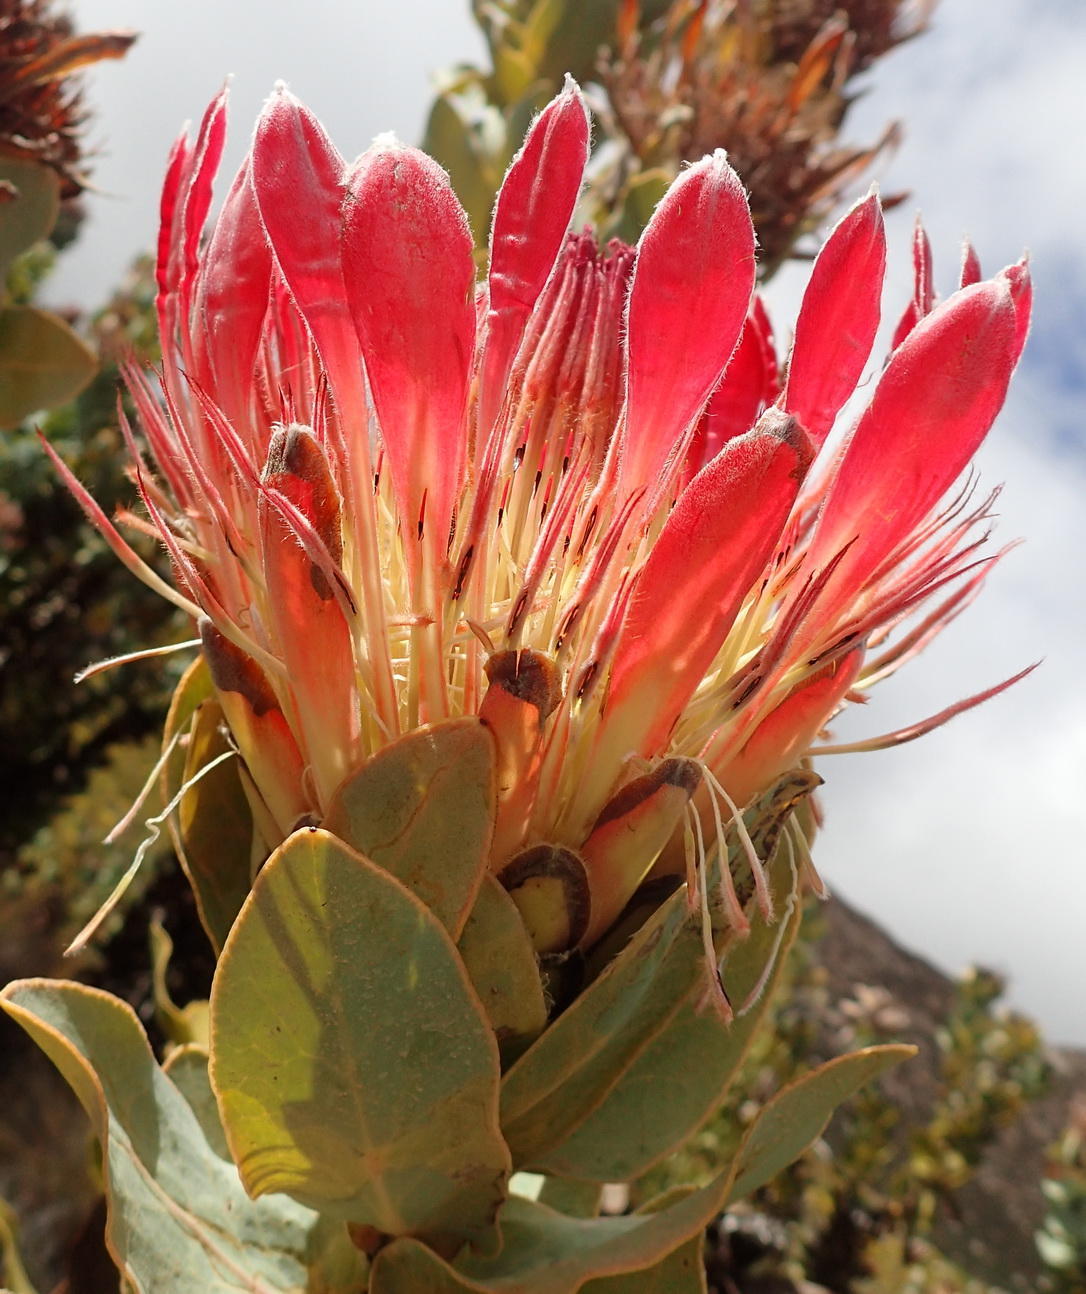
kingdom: Plantae
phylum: Tracheophyta
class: Magnoliopsida
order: Proteales
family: Proteaceae
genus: Protea
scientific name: Protea eximia
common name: Broad-leaved sugarbush
